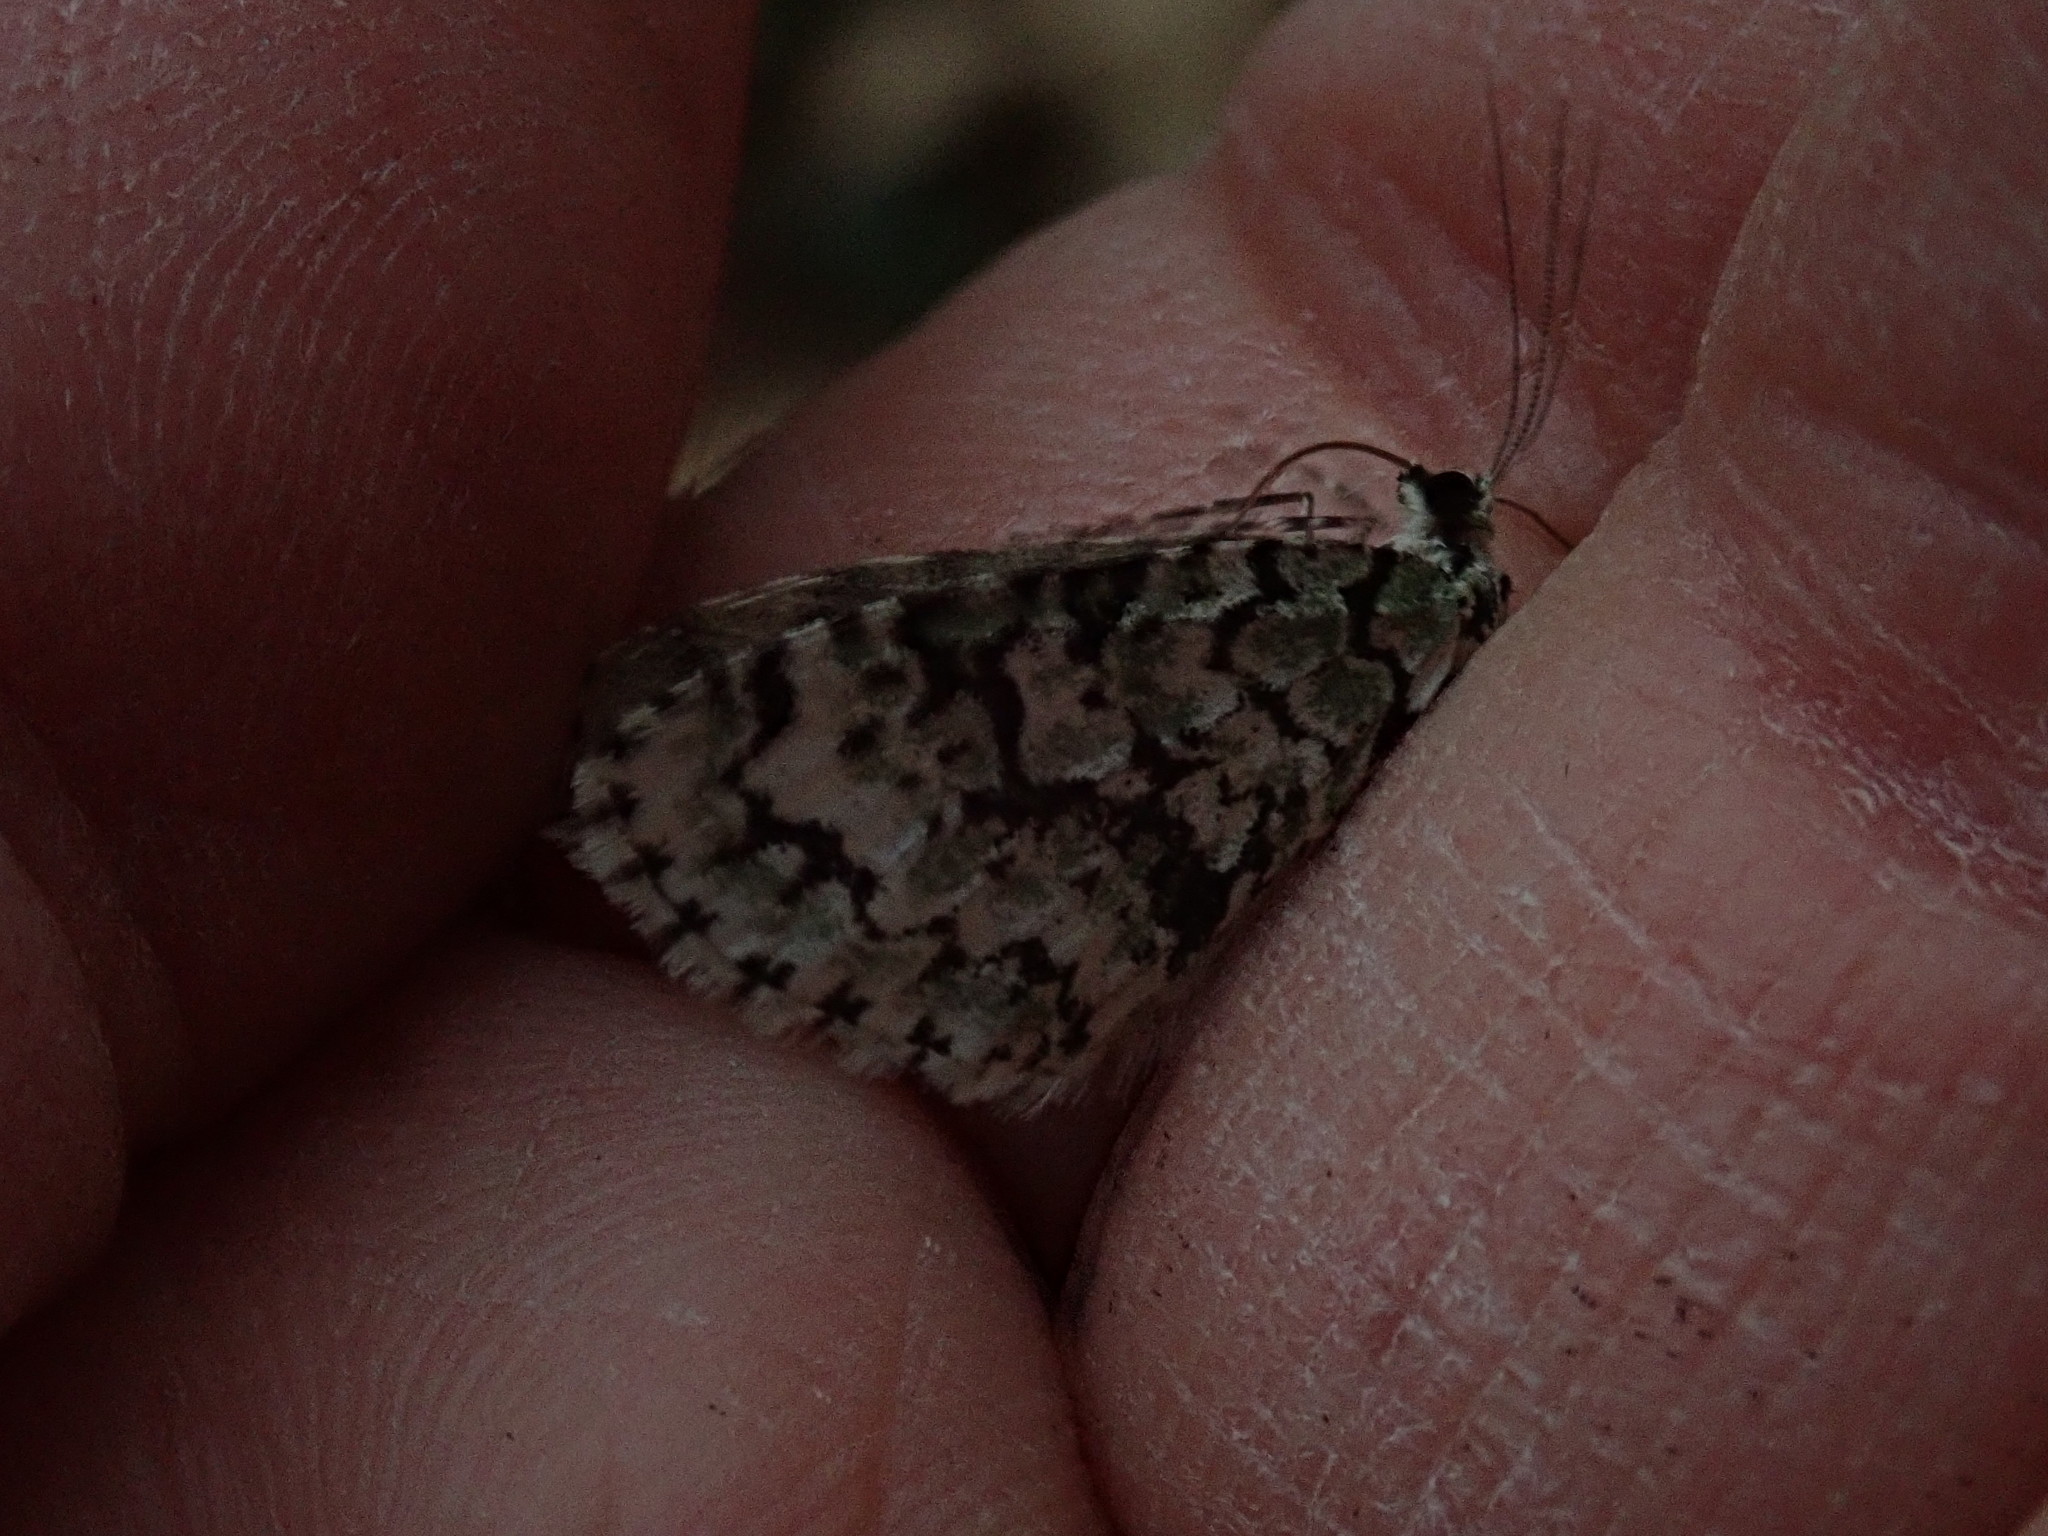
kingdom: Animalia
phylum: Arthropoda
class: Insecta
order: Lepidoptera
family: Geometridae
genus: Cladara
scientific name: Cladara atroliturata
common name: Scribbler
